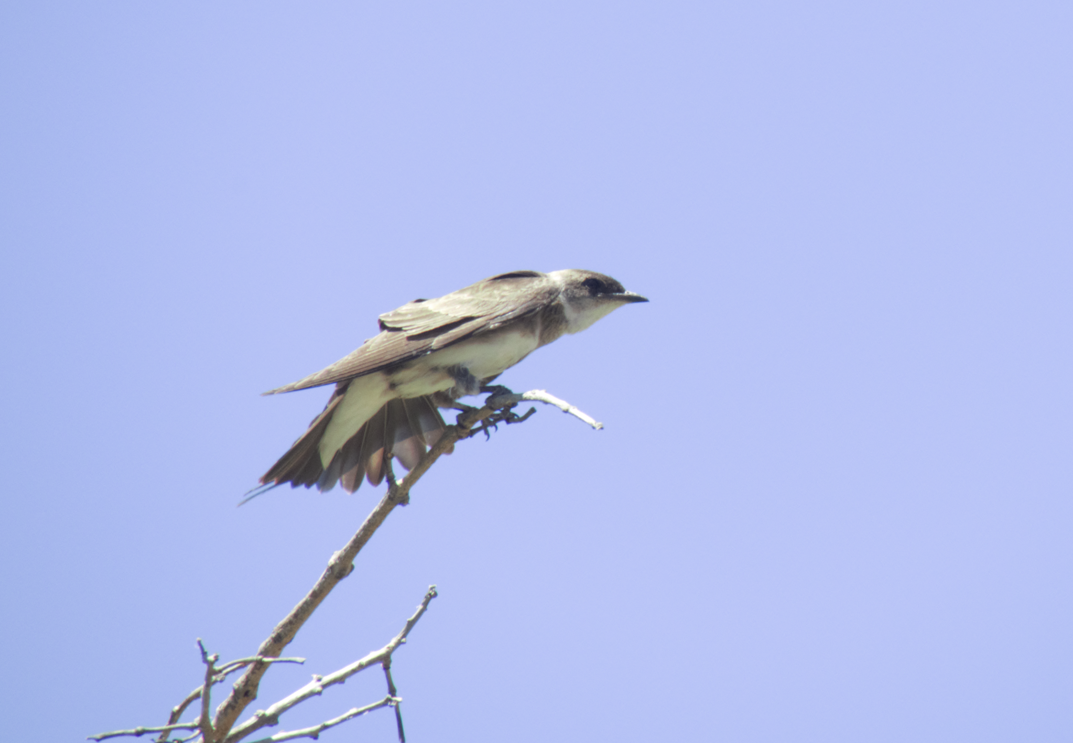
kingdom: Animalia
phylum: Chordata
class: Aves
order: Passeriformes
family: Hirundinidae
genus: Progne
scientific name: Progne tapera
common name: Brown-chested martin
